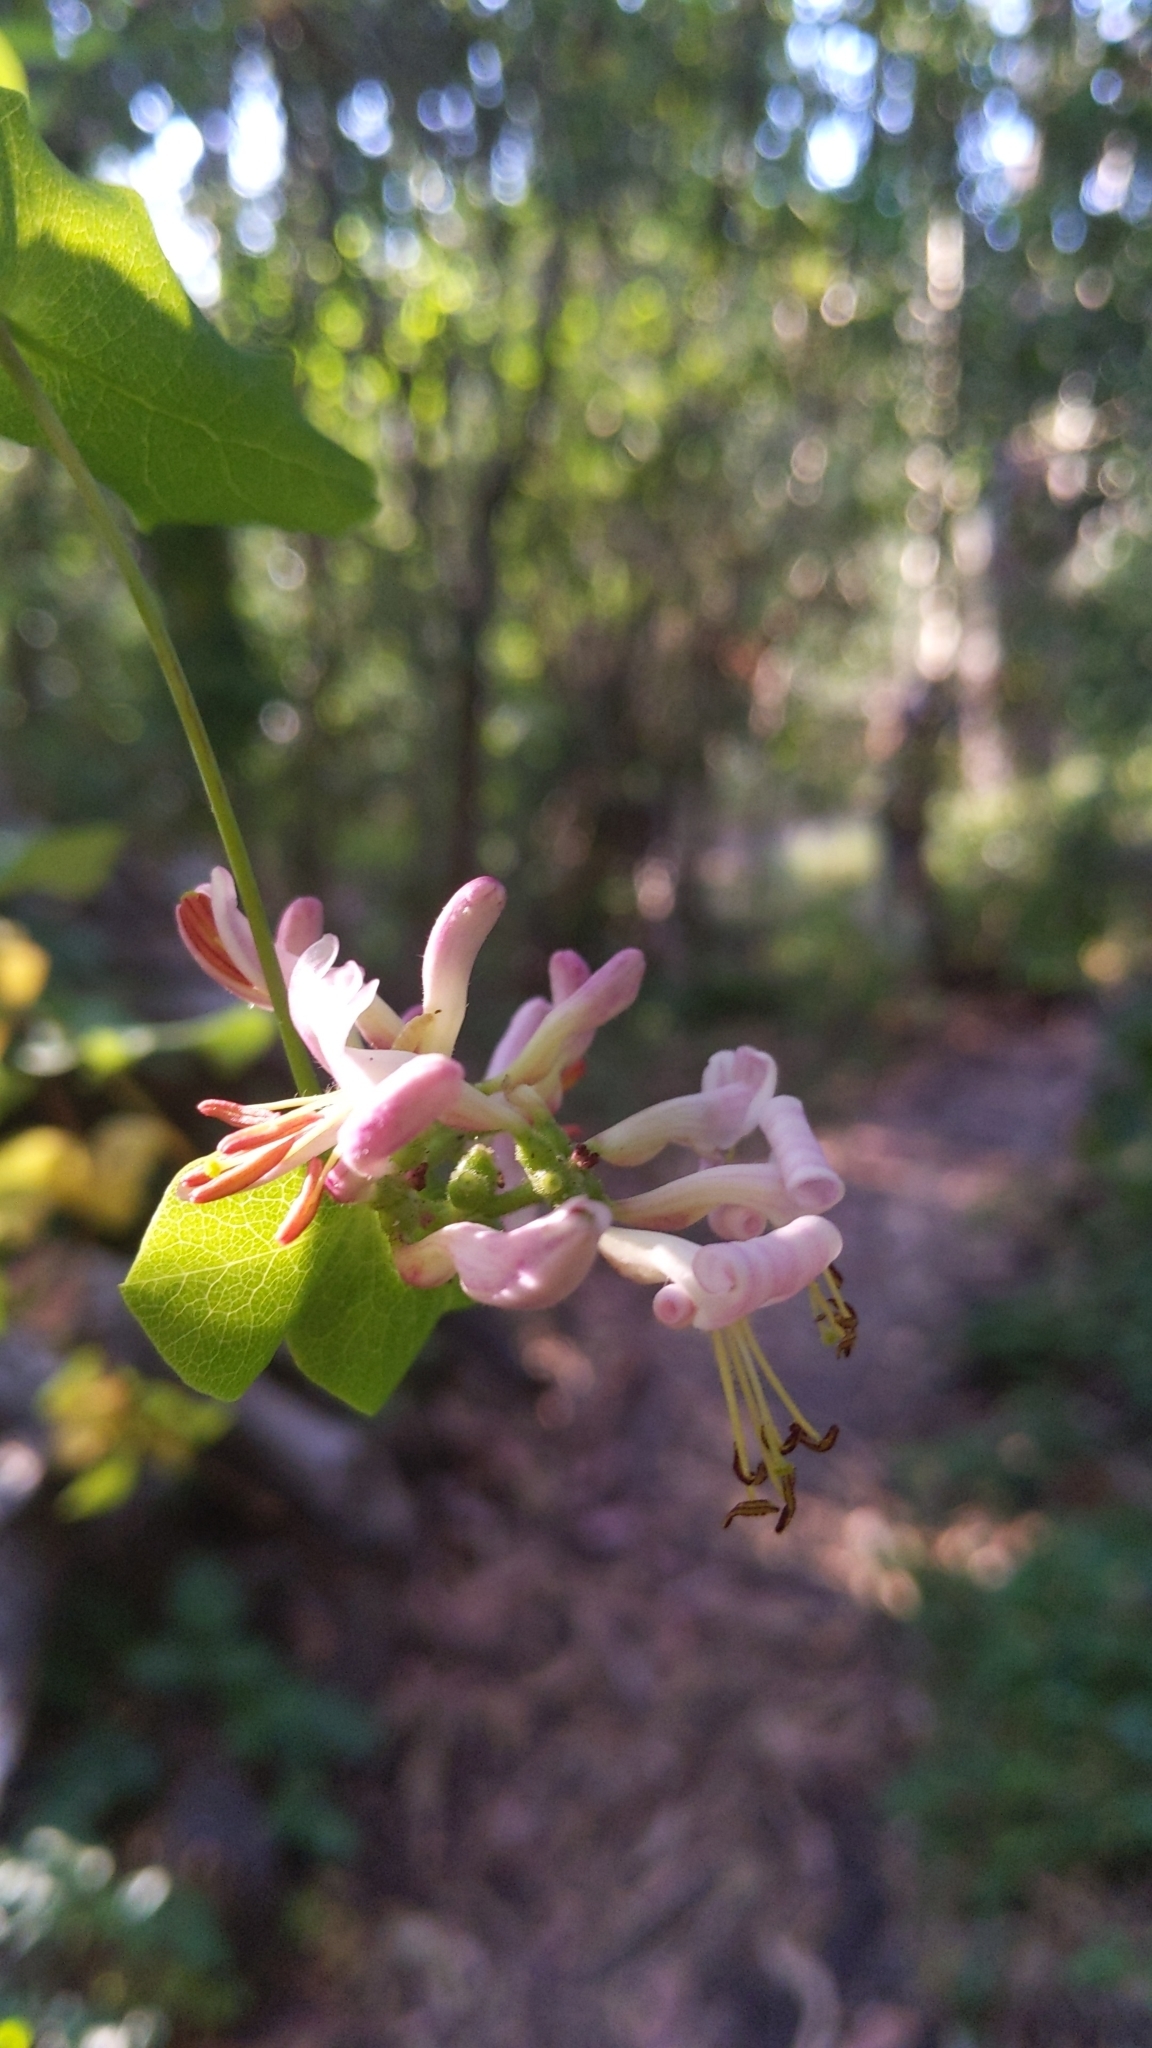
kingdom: Plantae
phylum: Tracheophyta
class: Magnoliopsida
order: Dipsacales
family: Caprifoliaceae
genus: Lonicera
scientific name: Lonicera hispidula
